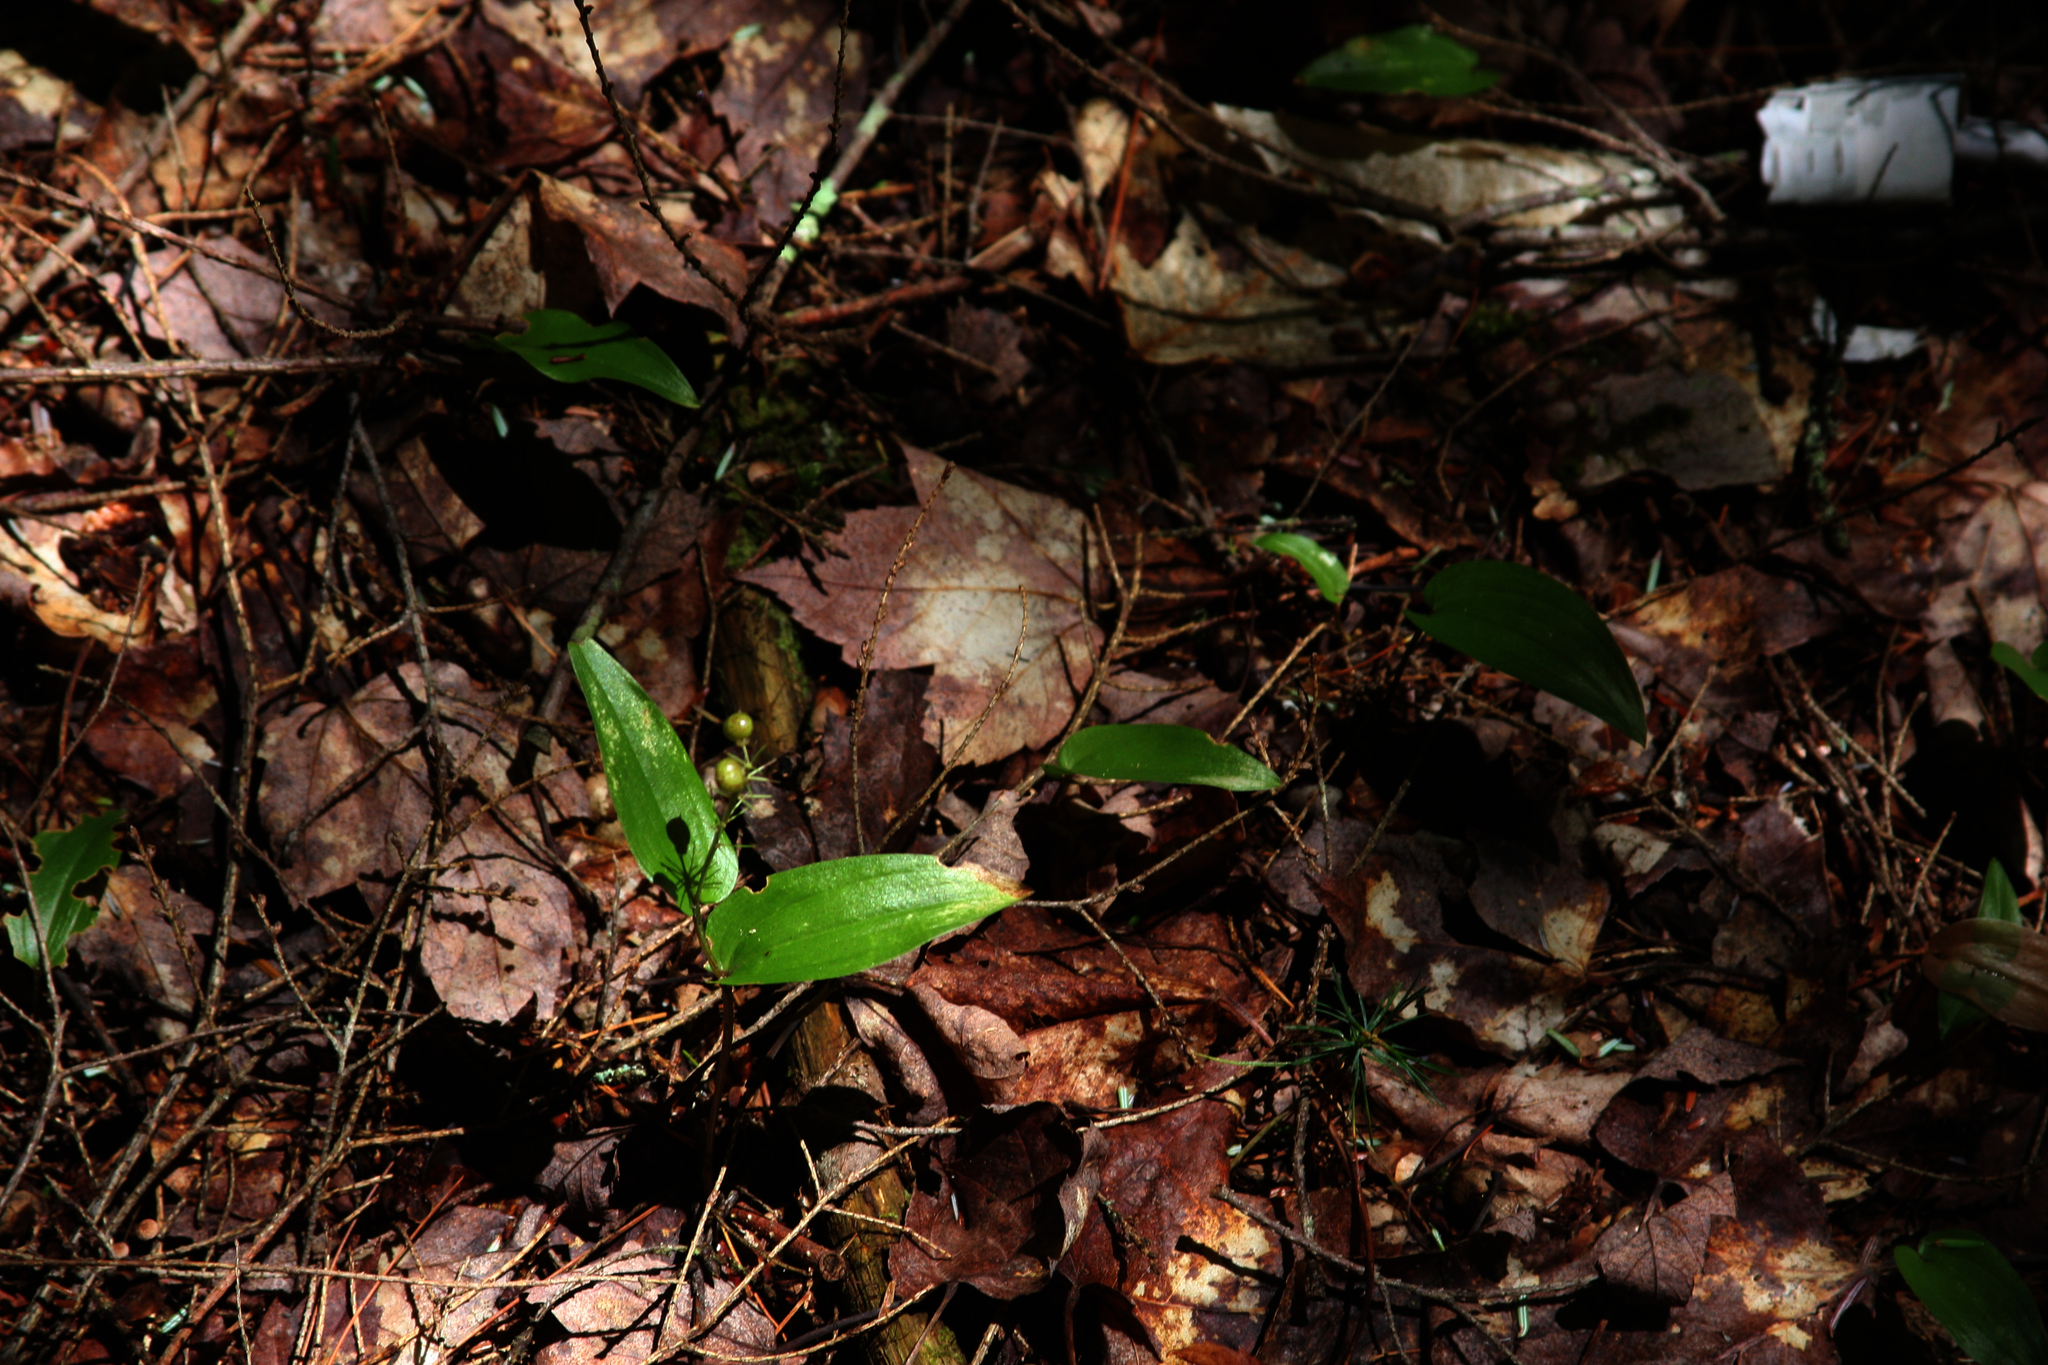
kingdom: Plantae
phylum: Tracheophyta
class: Liliopsida
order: Asparagales
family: Asparagaceae
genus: Maianthemum
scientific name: Maianthemum canadense
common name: False lily-of-the-valley
